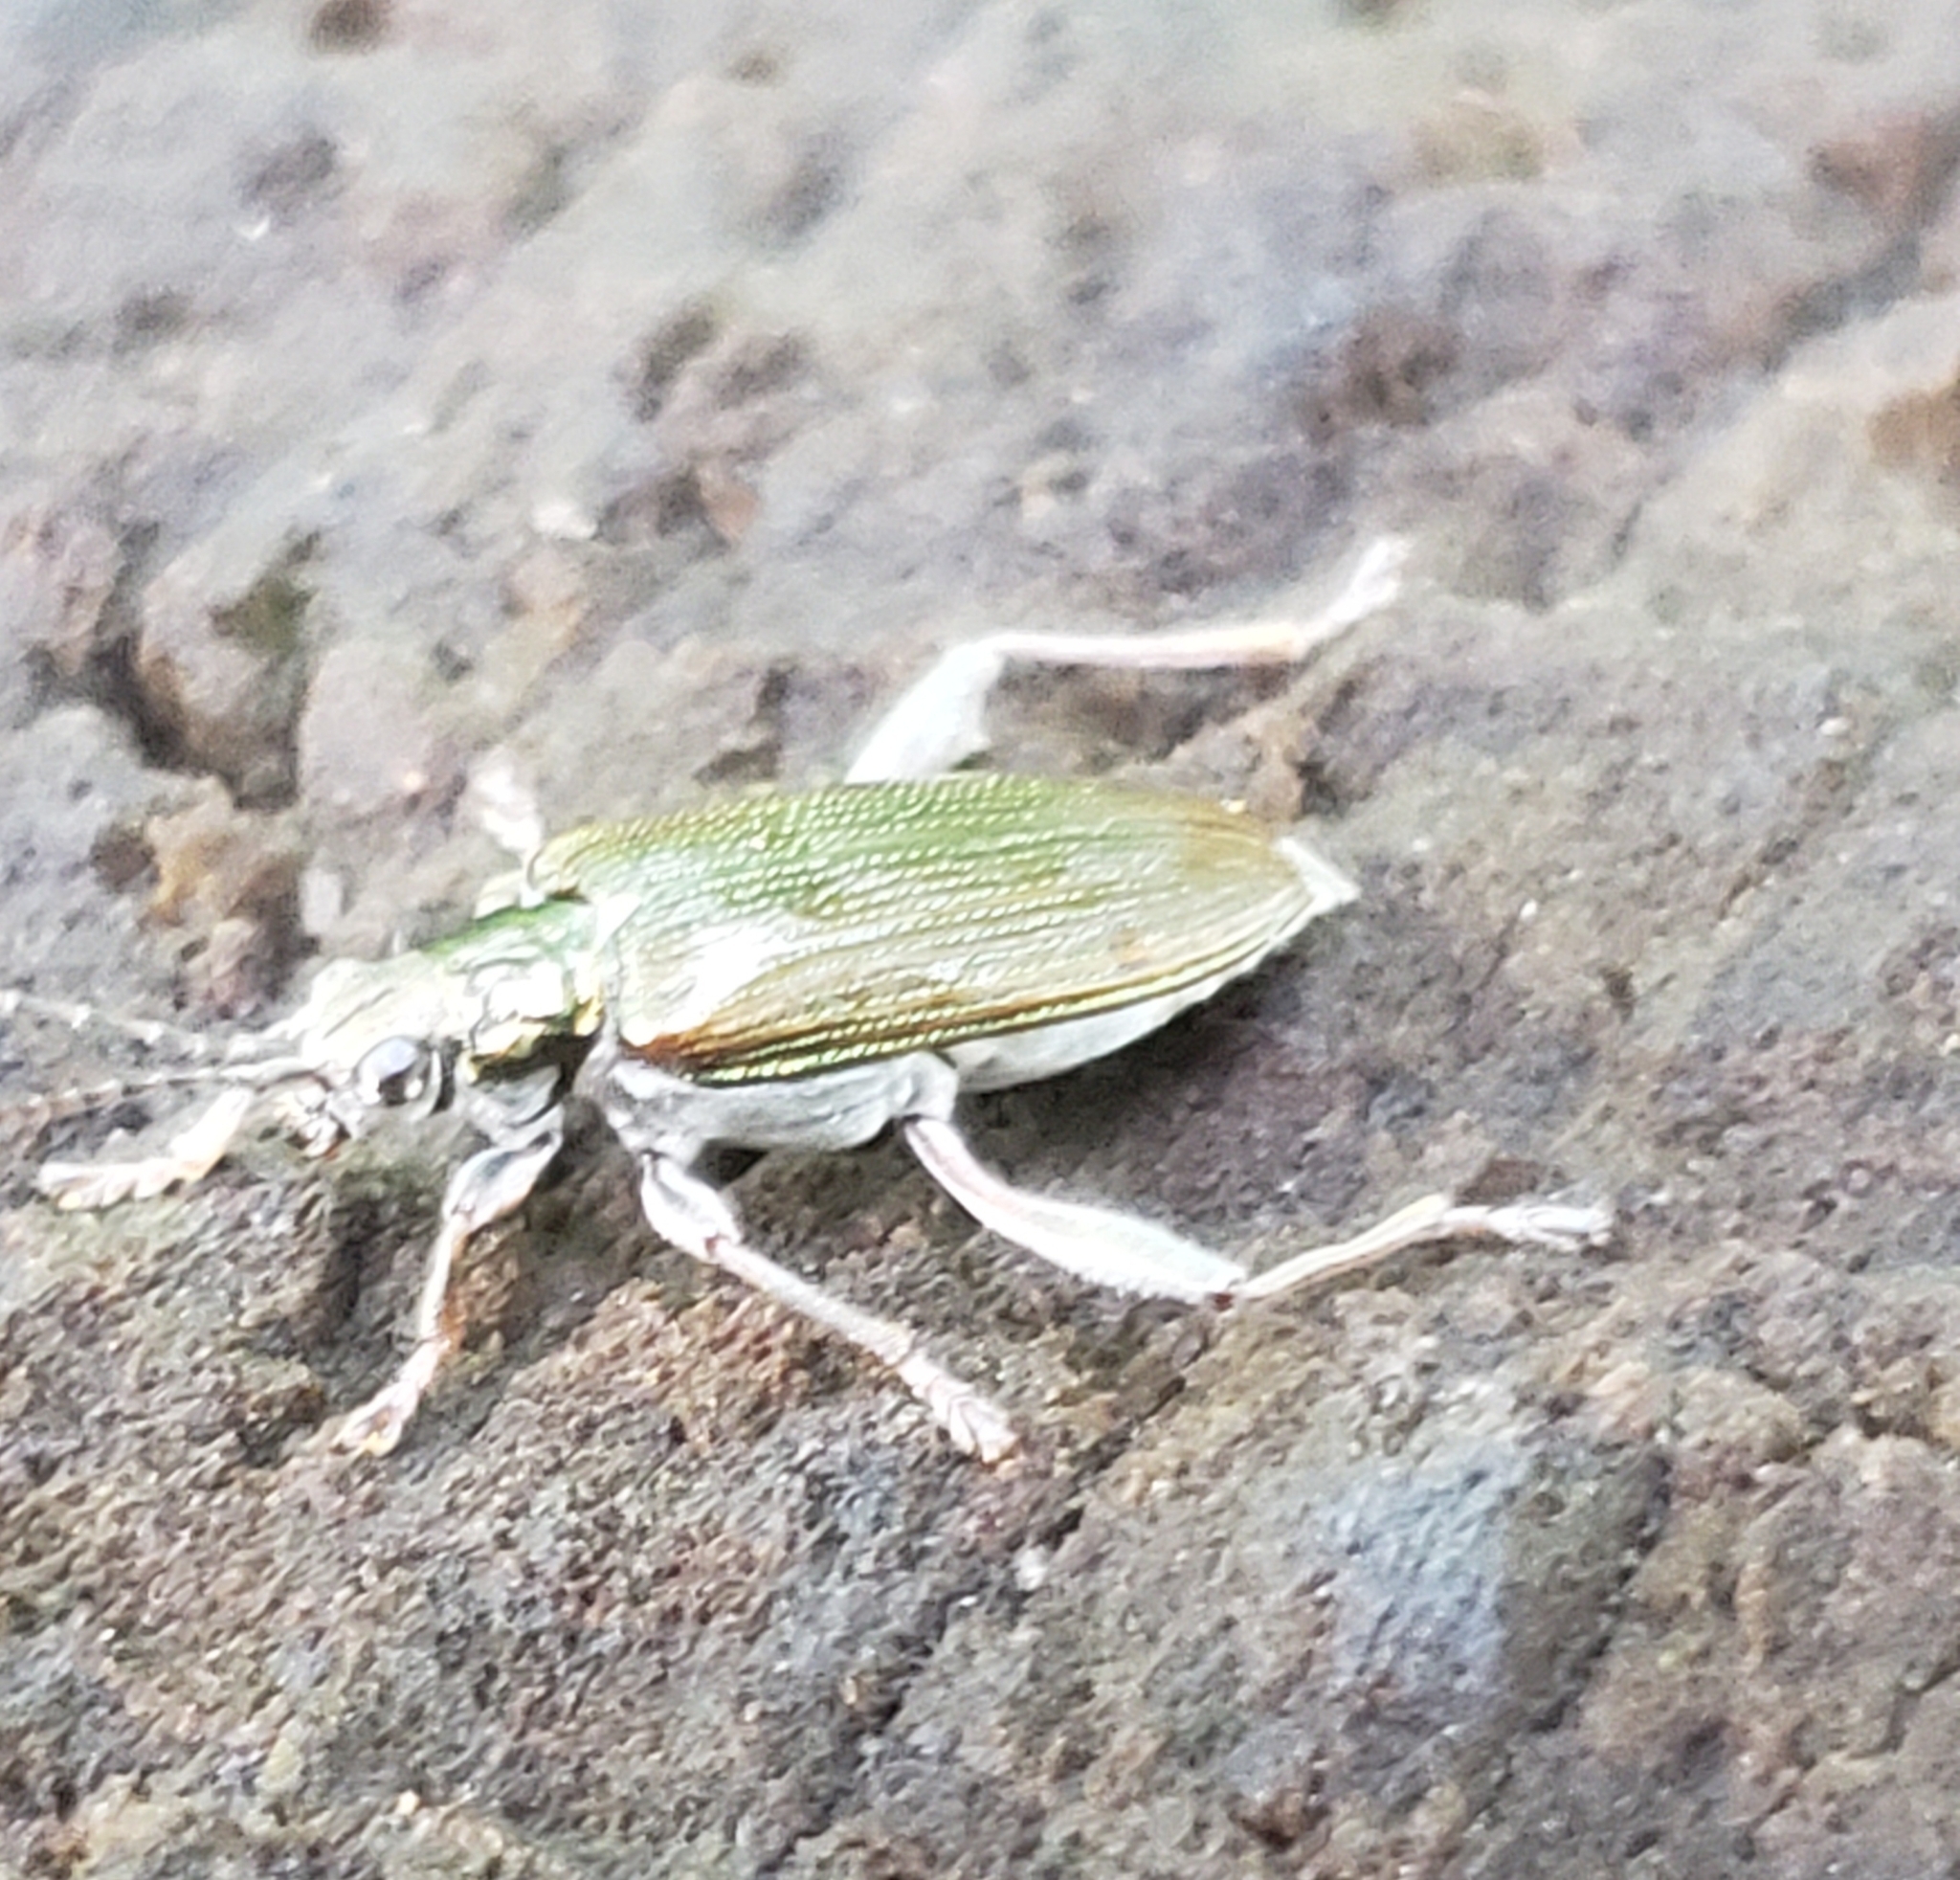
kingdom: Animalia
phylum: Arthropoda
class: Insecta
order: Coleoptera
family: Chrysomelidae
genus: Donacia
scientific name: Donacia proxima
